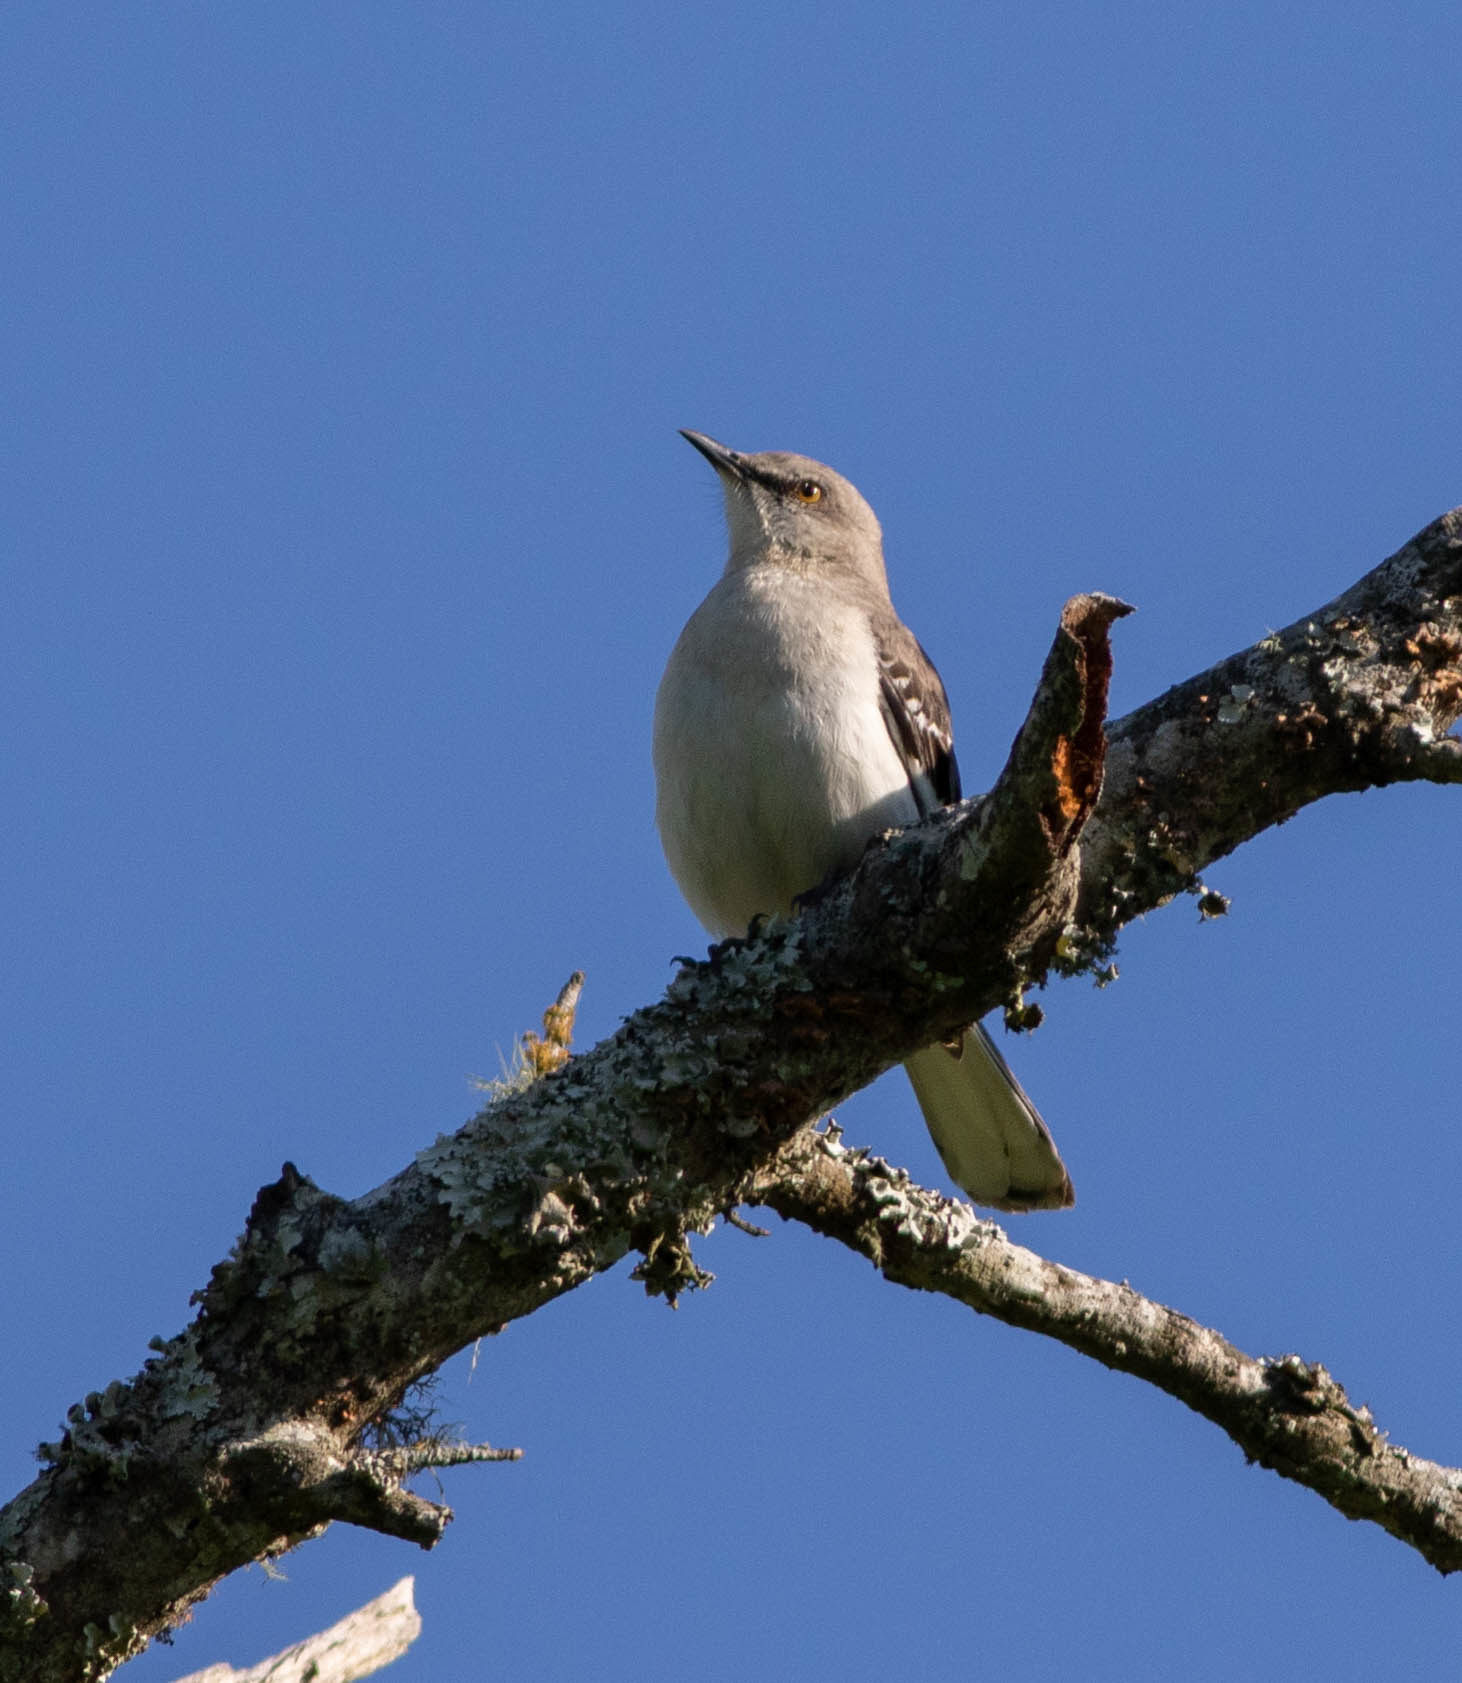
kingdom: Animalia
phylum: Chordata
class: Aves
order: Passeriformes
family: Mimidae
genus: Mimus
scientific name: Mimus polyglottos
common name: Northern mockingbird
